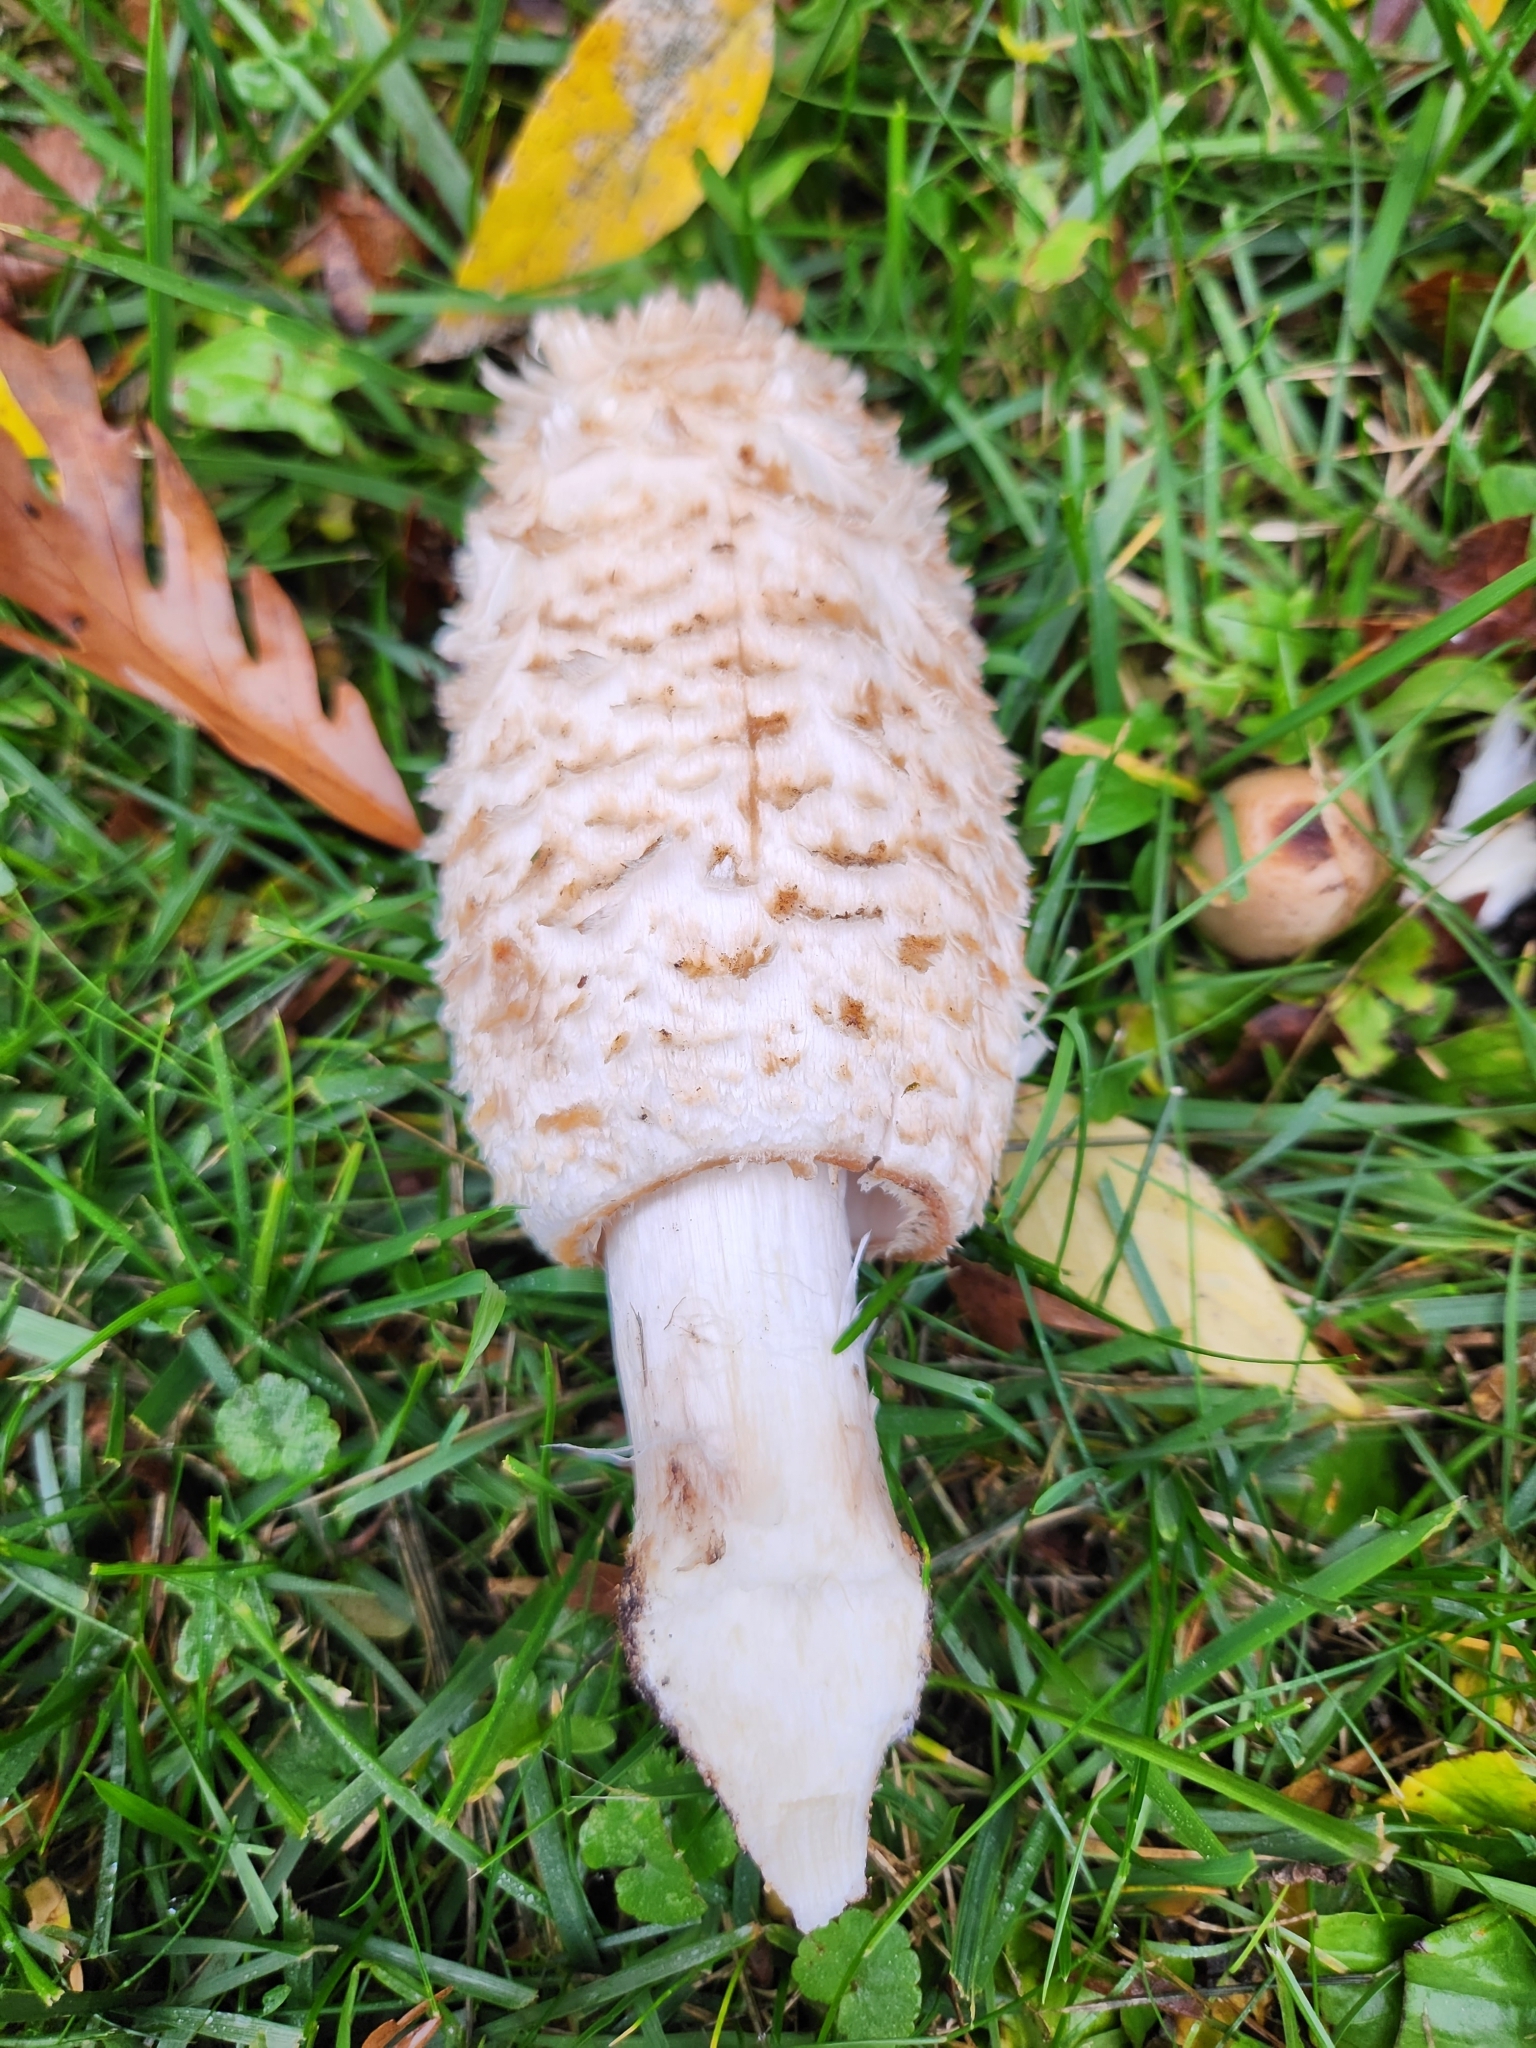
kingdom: Fungi
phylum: Basidiomycota
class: Agaricomycetes
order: Agaricales
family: Agaricaceae
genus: Coprinus
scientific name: Coprinus comatus
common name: Lawyer's wig
